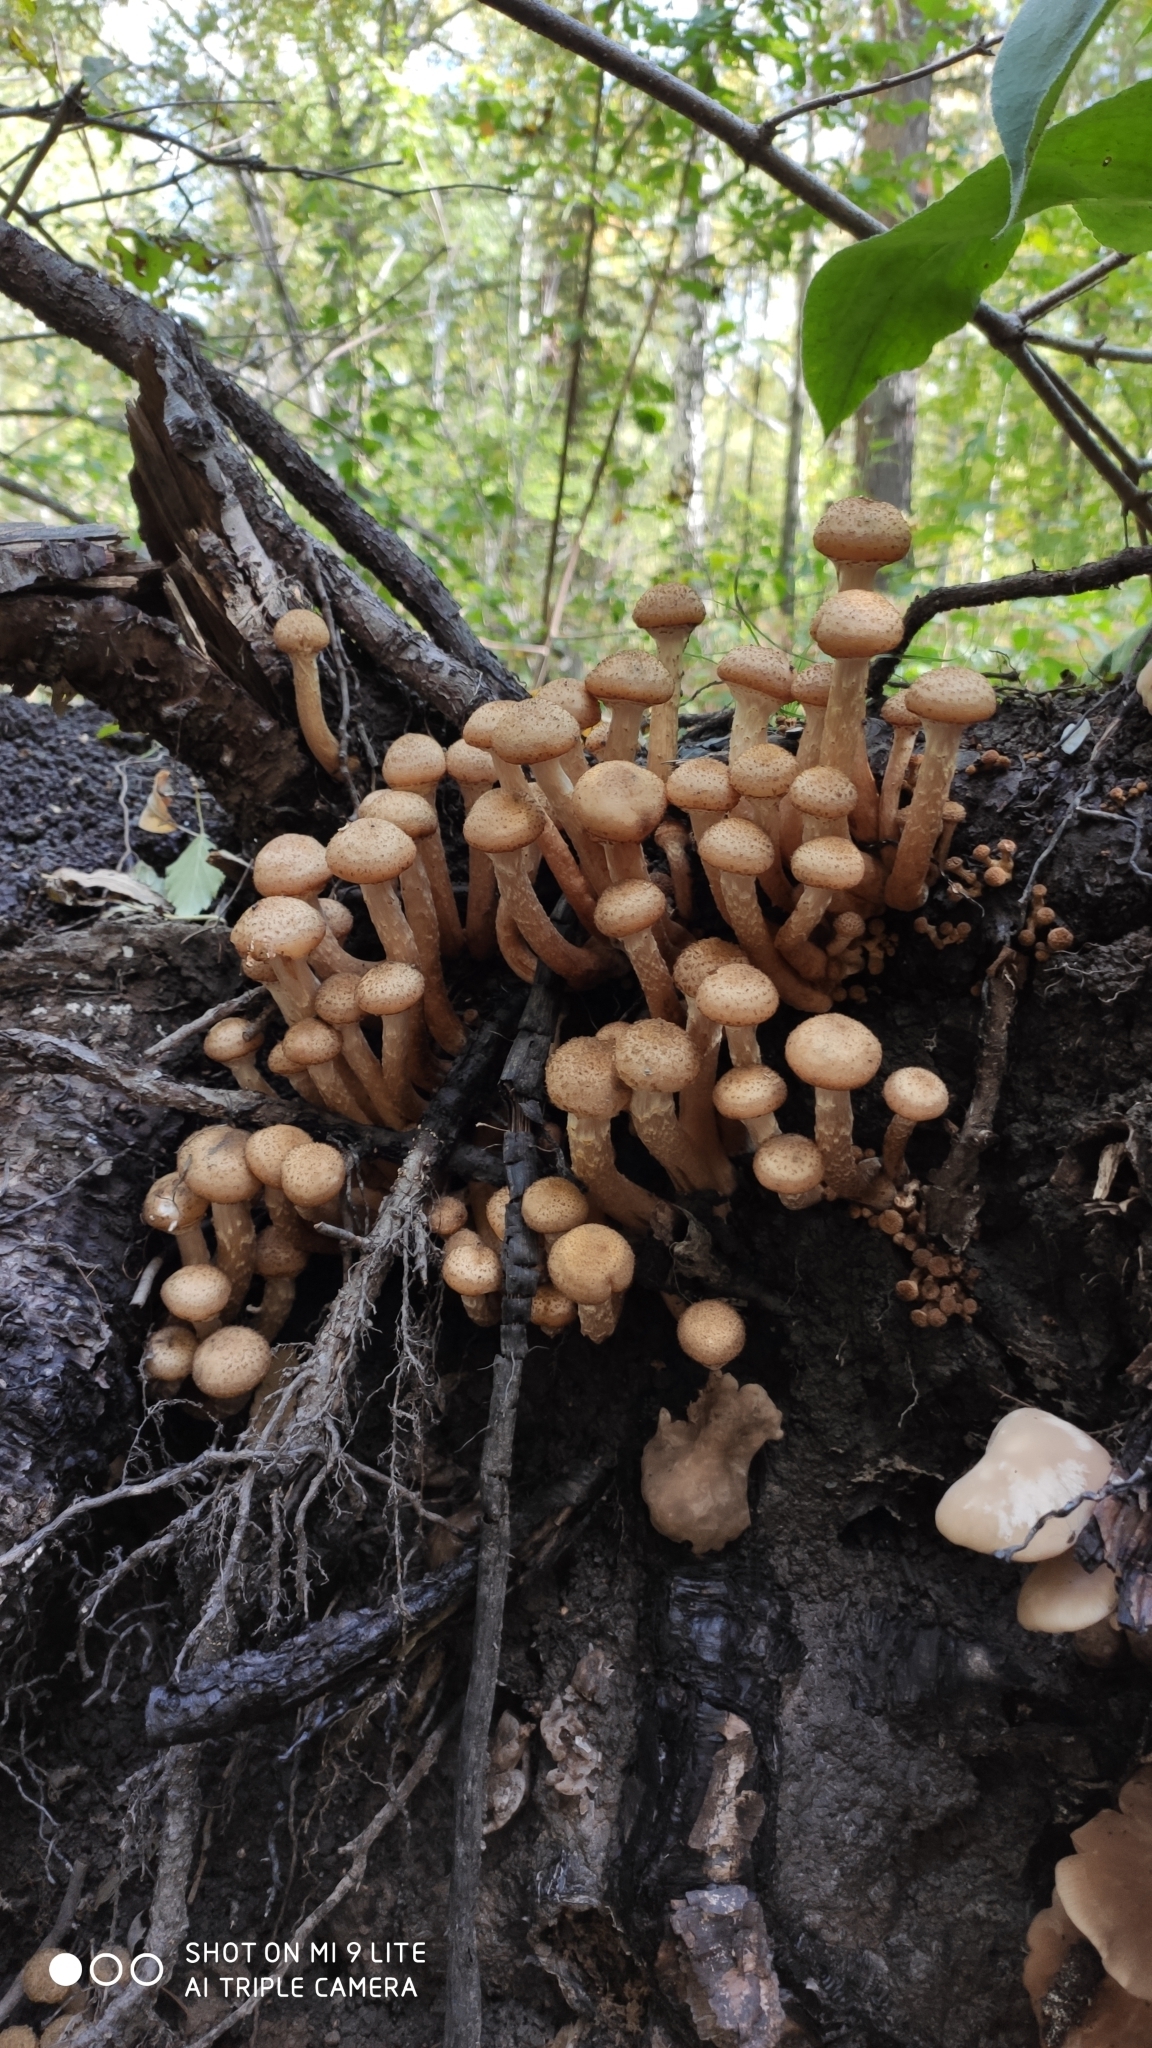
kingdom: Fungi
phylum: Basidiomycota
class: Agaricomycetes
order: Agaricales
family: Physalacriaceae
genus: Armillaria
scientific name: Armillaria borealis
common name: Northern honey fungus
